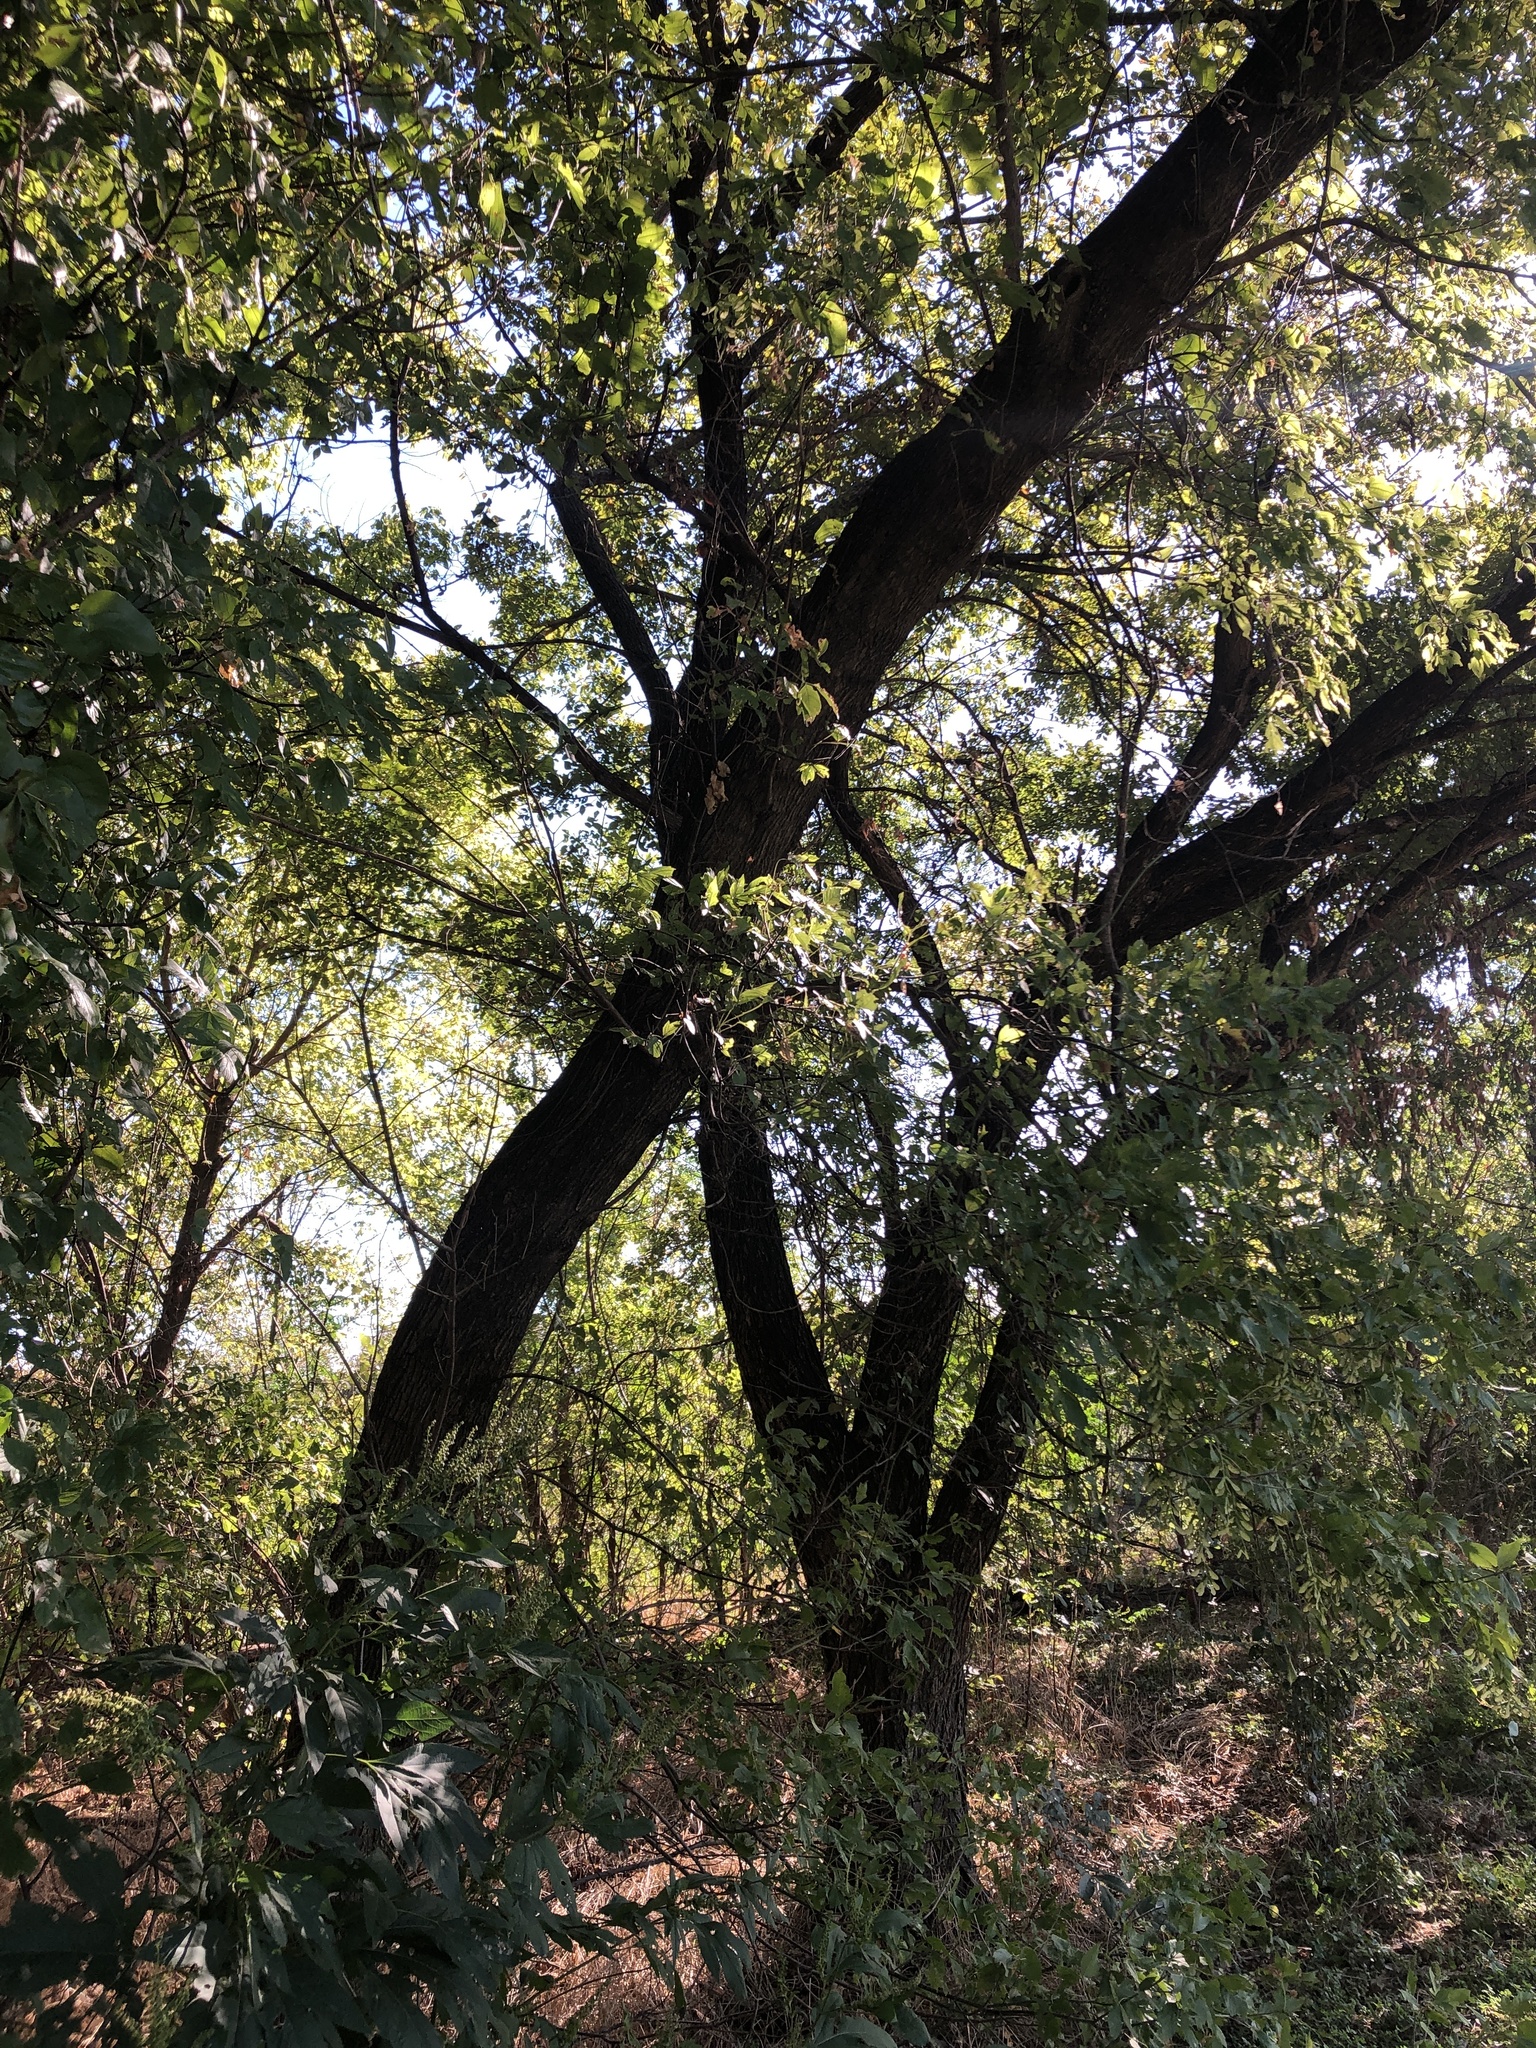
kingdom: Plantae
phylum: Tracheophyta
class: Magnoliopsida
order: Sapindales
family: Sapindaceae
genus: Acer
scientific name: Acer negundo
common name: Ashleaf maple
